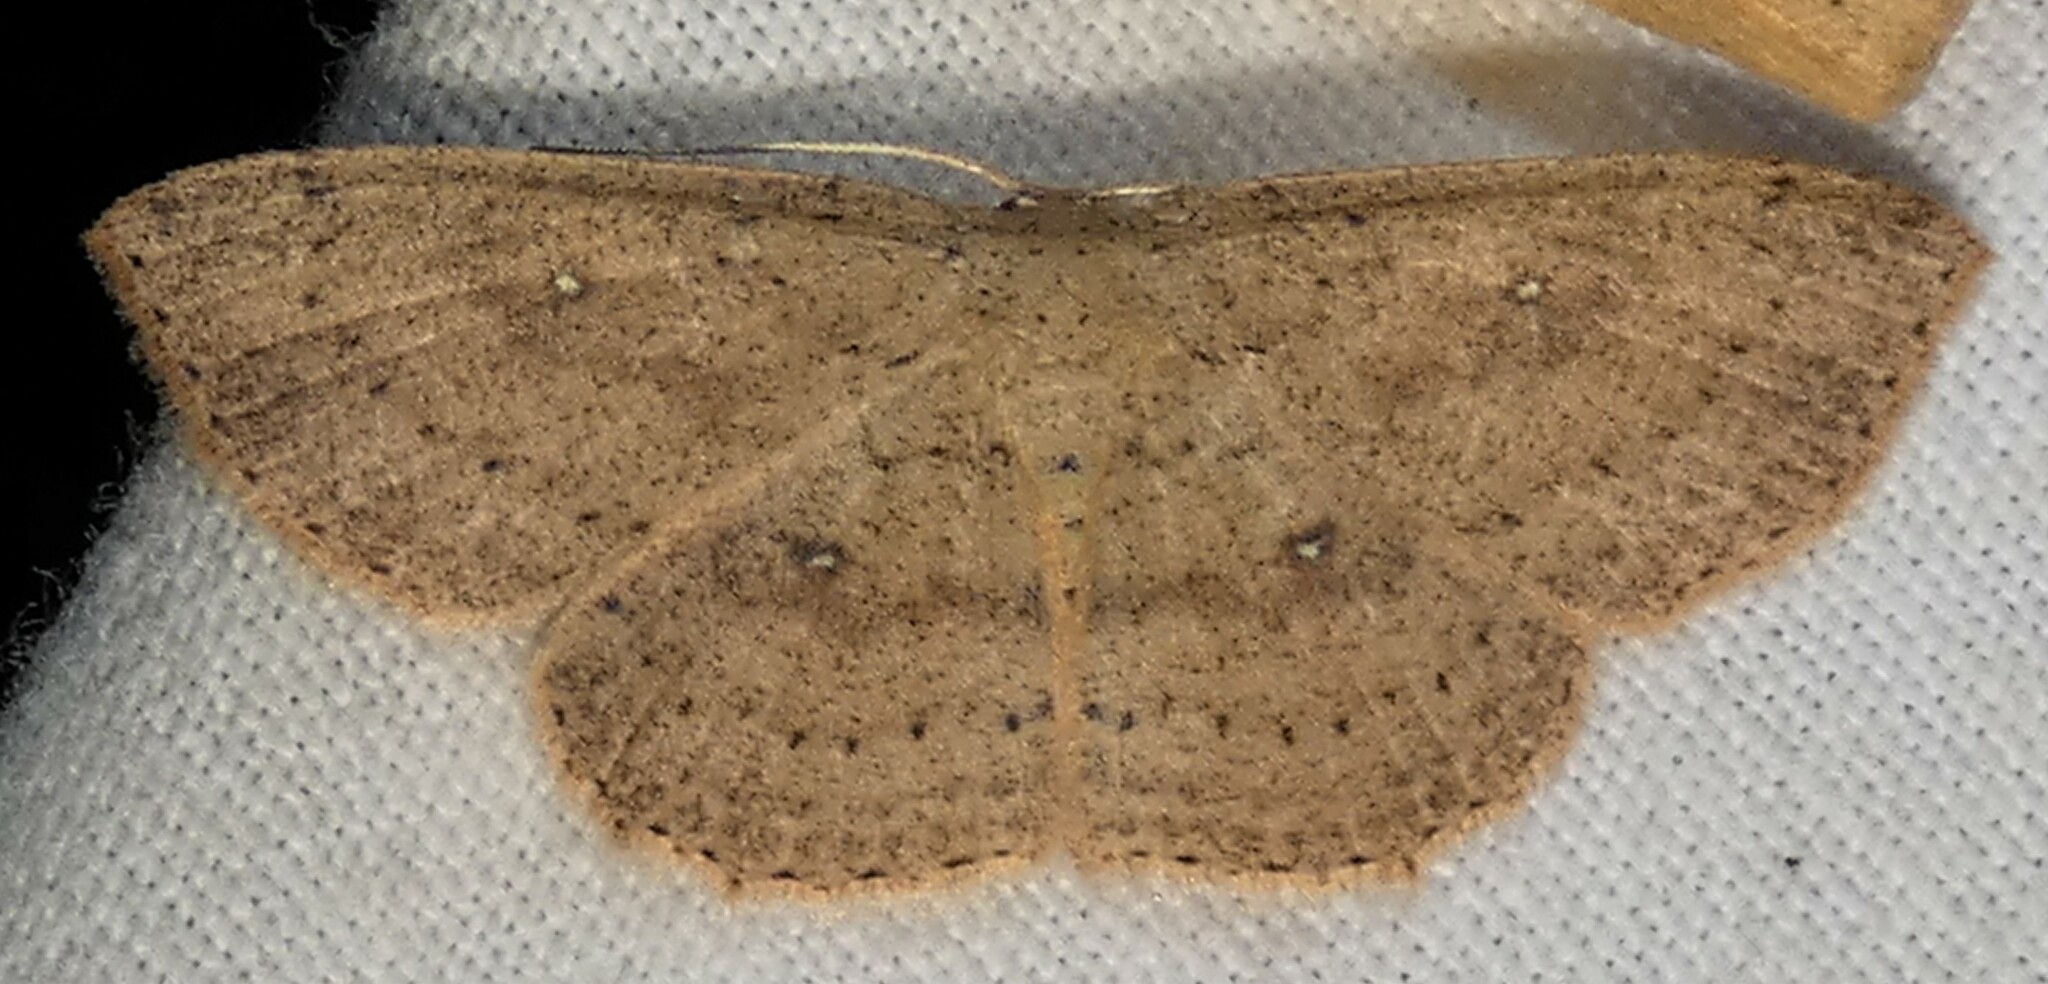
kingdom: Animalia
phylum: Arthropoda
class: Insecta
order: Lepidoptera
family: Geometridae
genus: Cyclophora
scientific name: Cyclophora myrtaria
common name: Waxmyrtle wave moth
